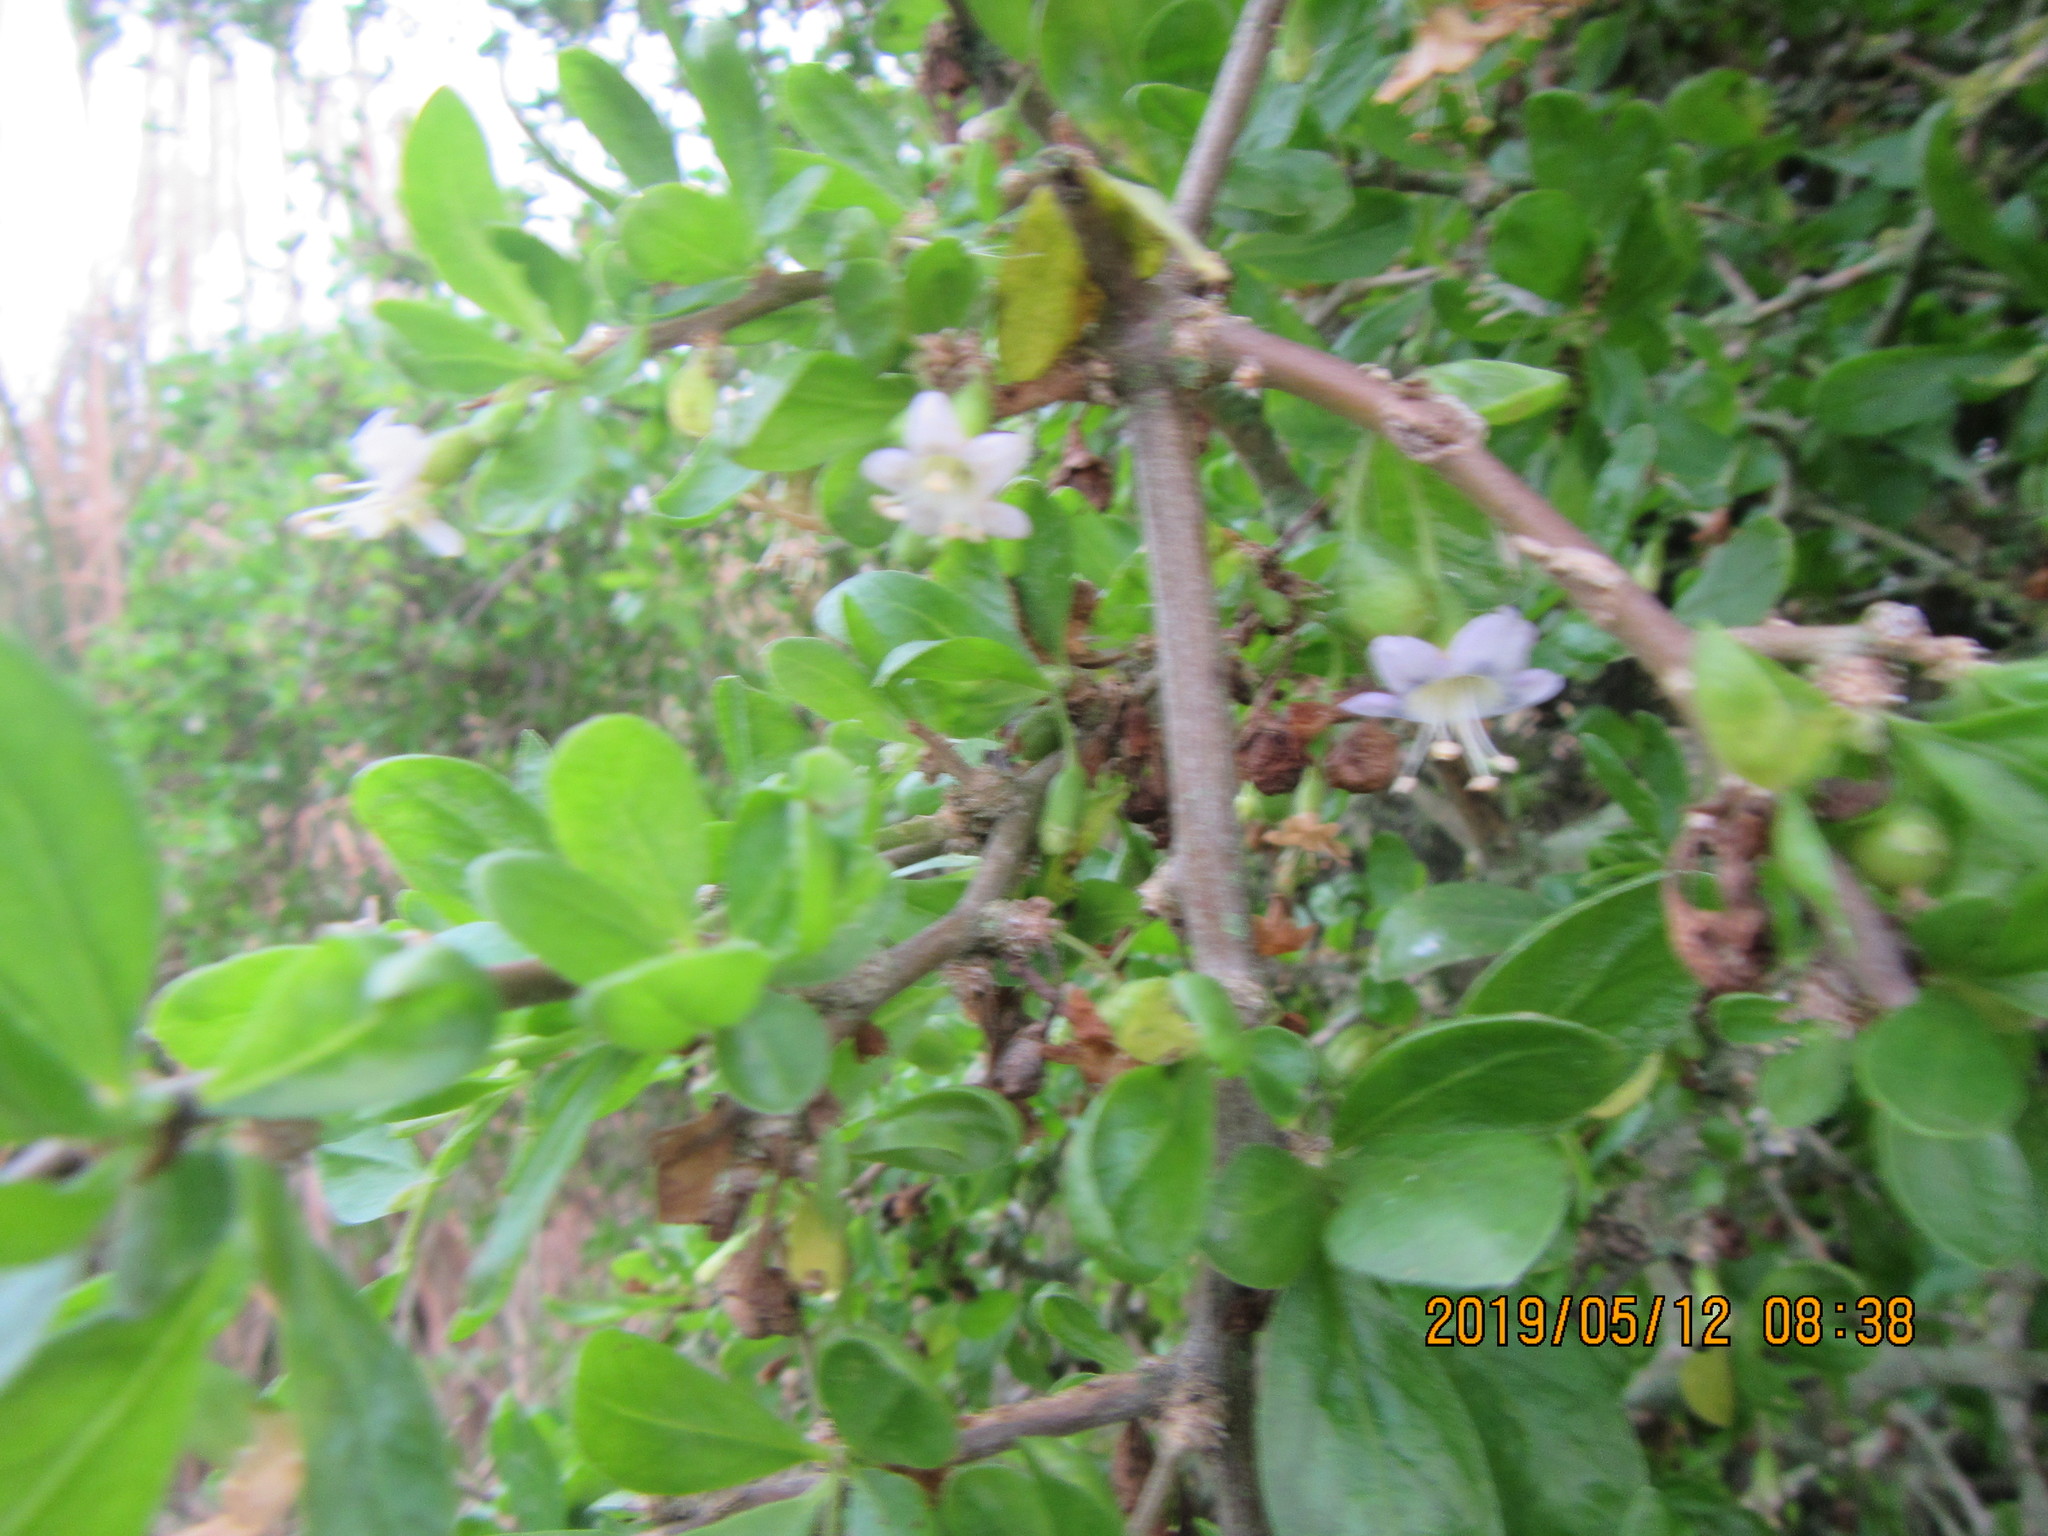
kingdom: Plantae
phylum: Tracheophyta
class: Magnoliopsida
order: Solanales
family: Solanaceae
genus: Lycium
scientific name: Lycium ferocissimum
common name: African boxthorn
